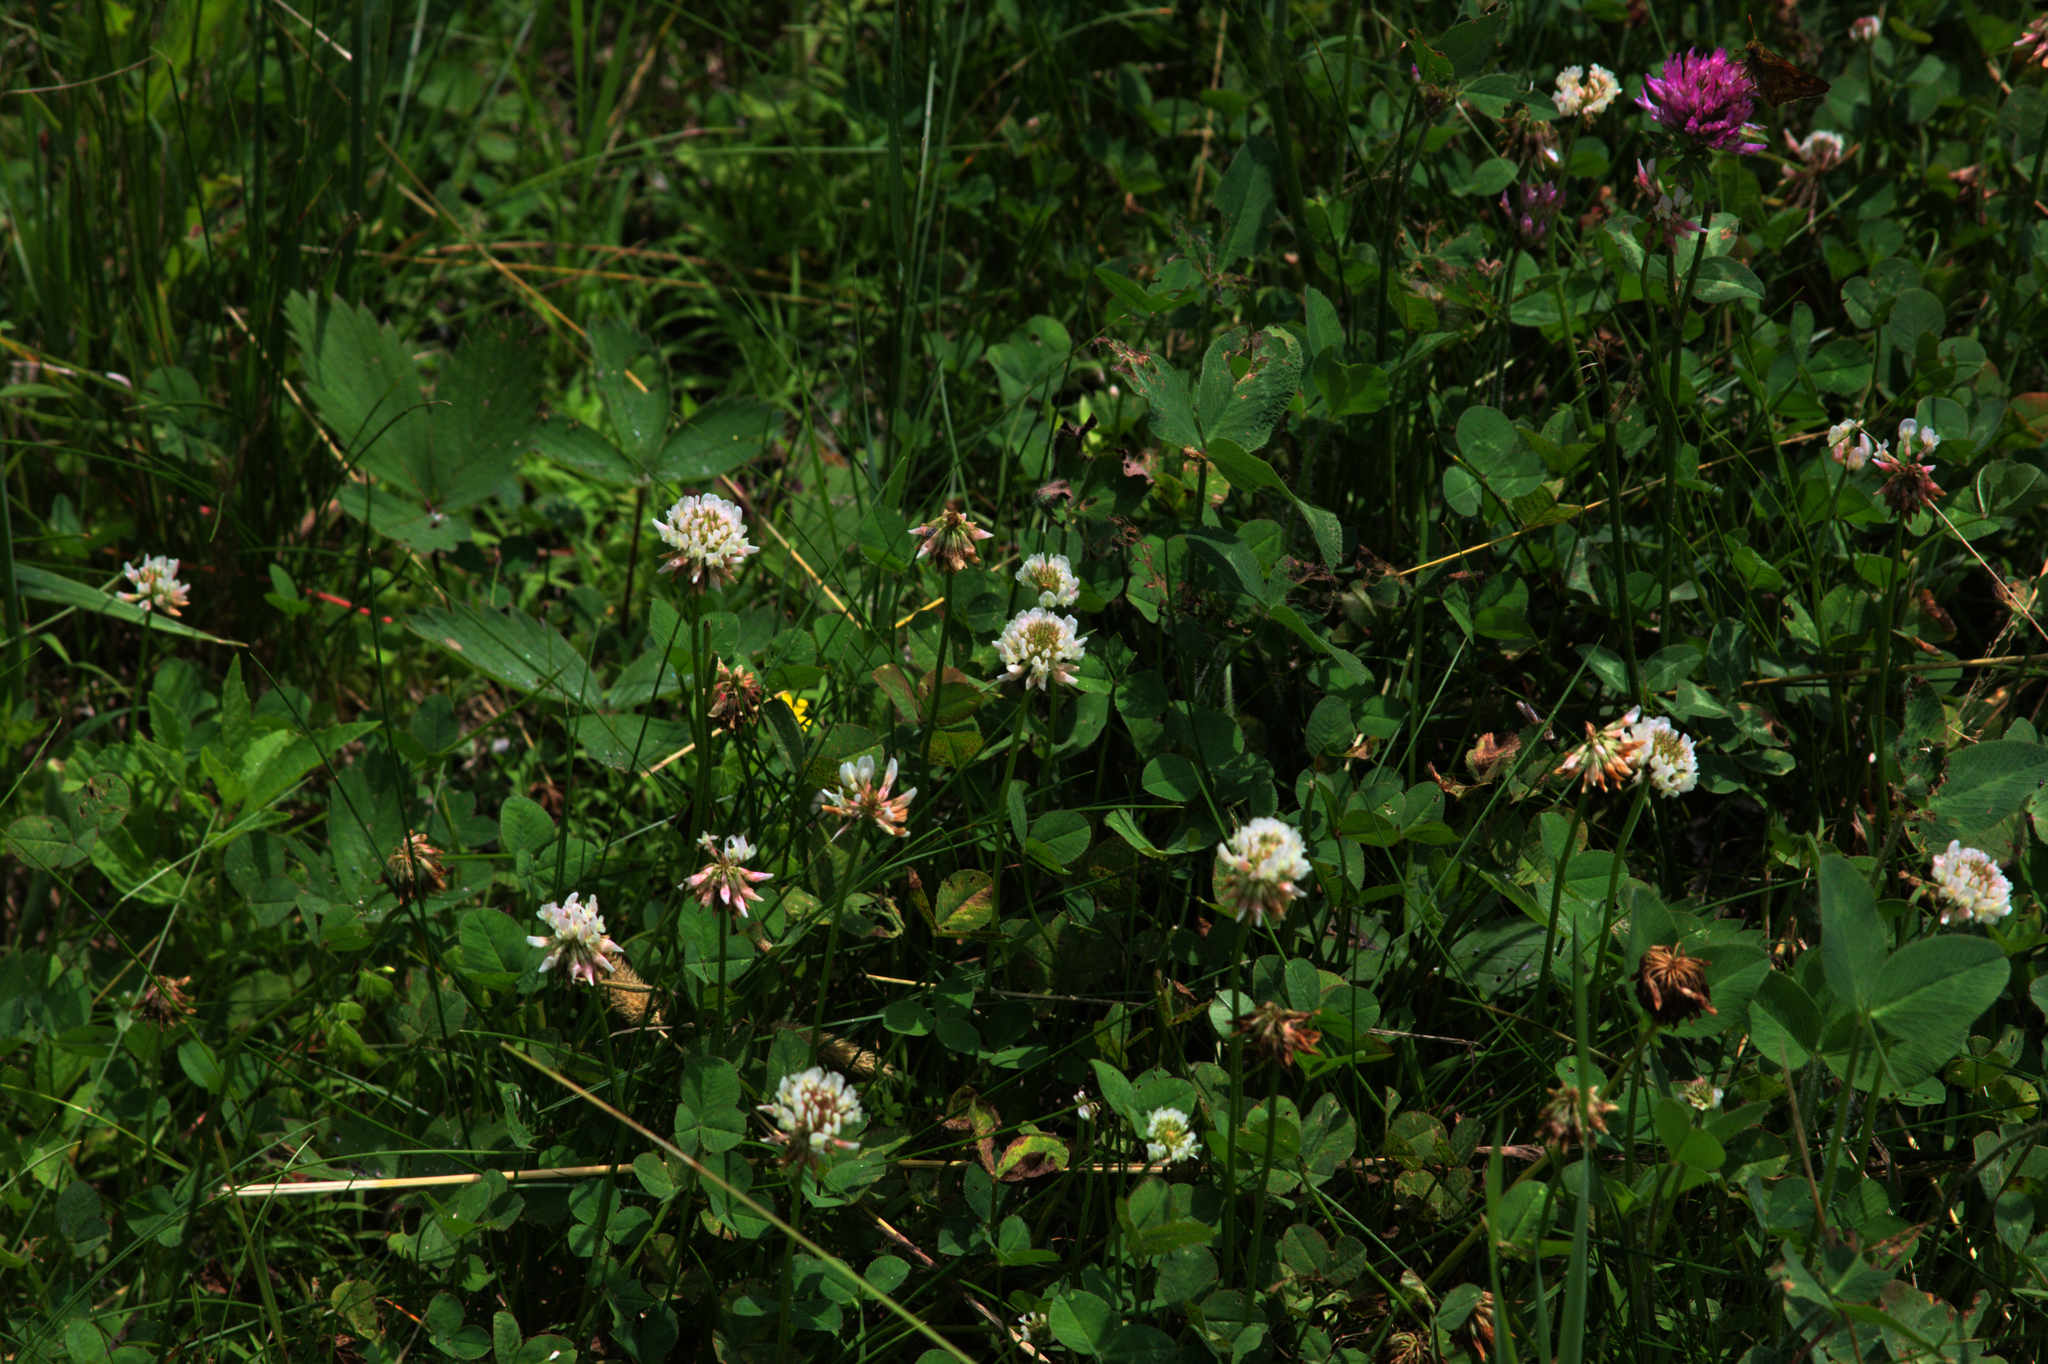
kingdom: Plantae
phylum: Tracheophyta
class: Magnoliopsida
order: Fabales
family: Fabaceae
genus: Trifolium
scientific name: Trifolium repens
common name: White clover
